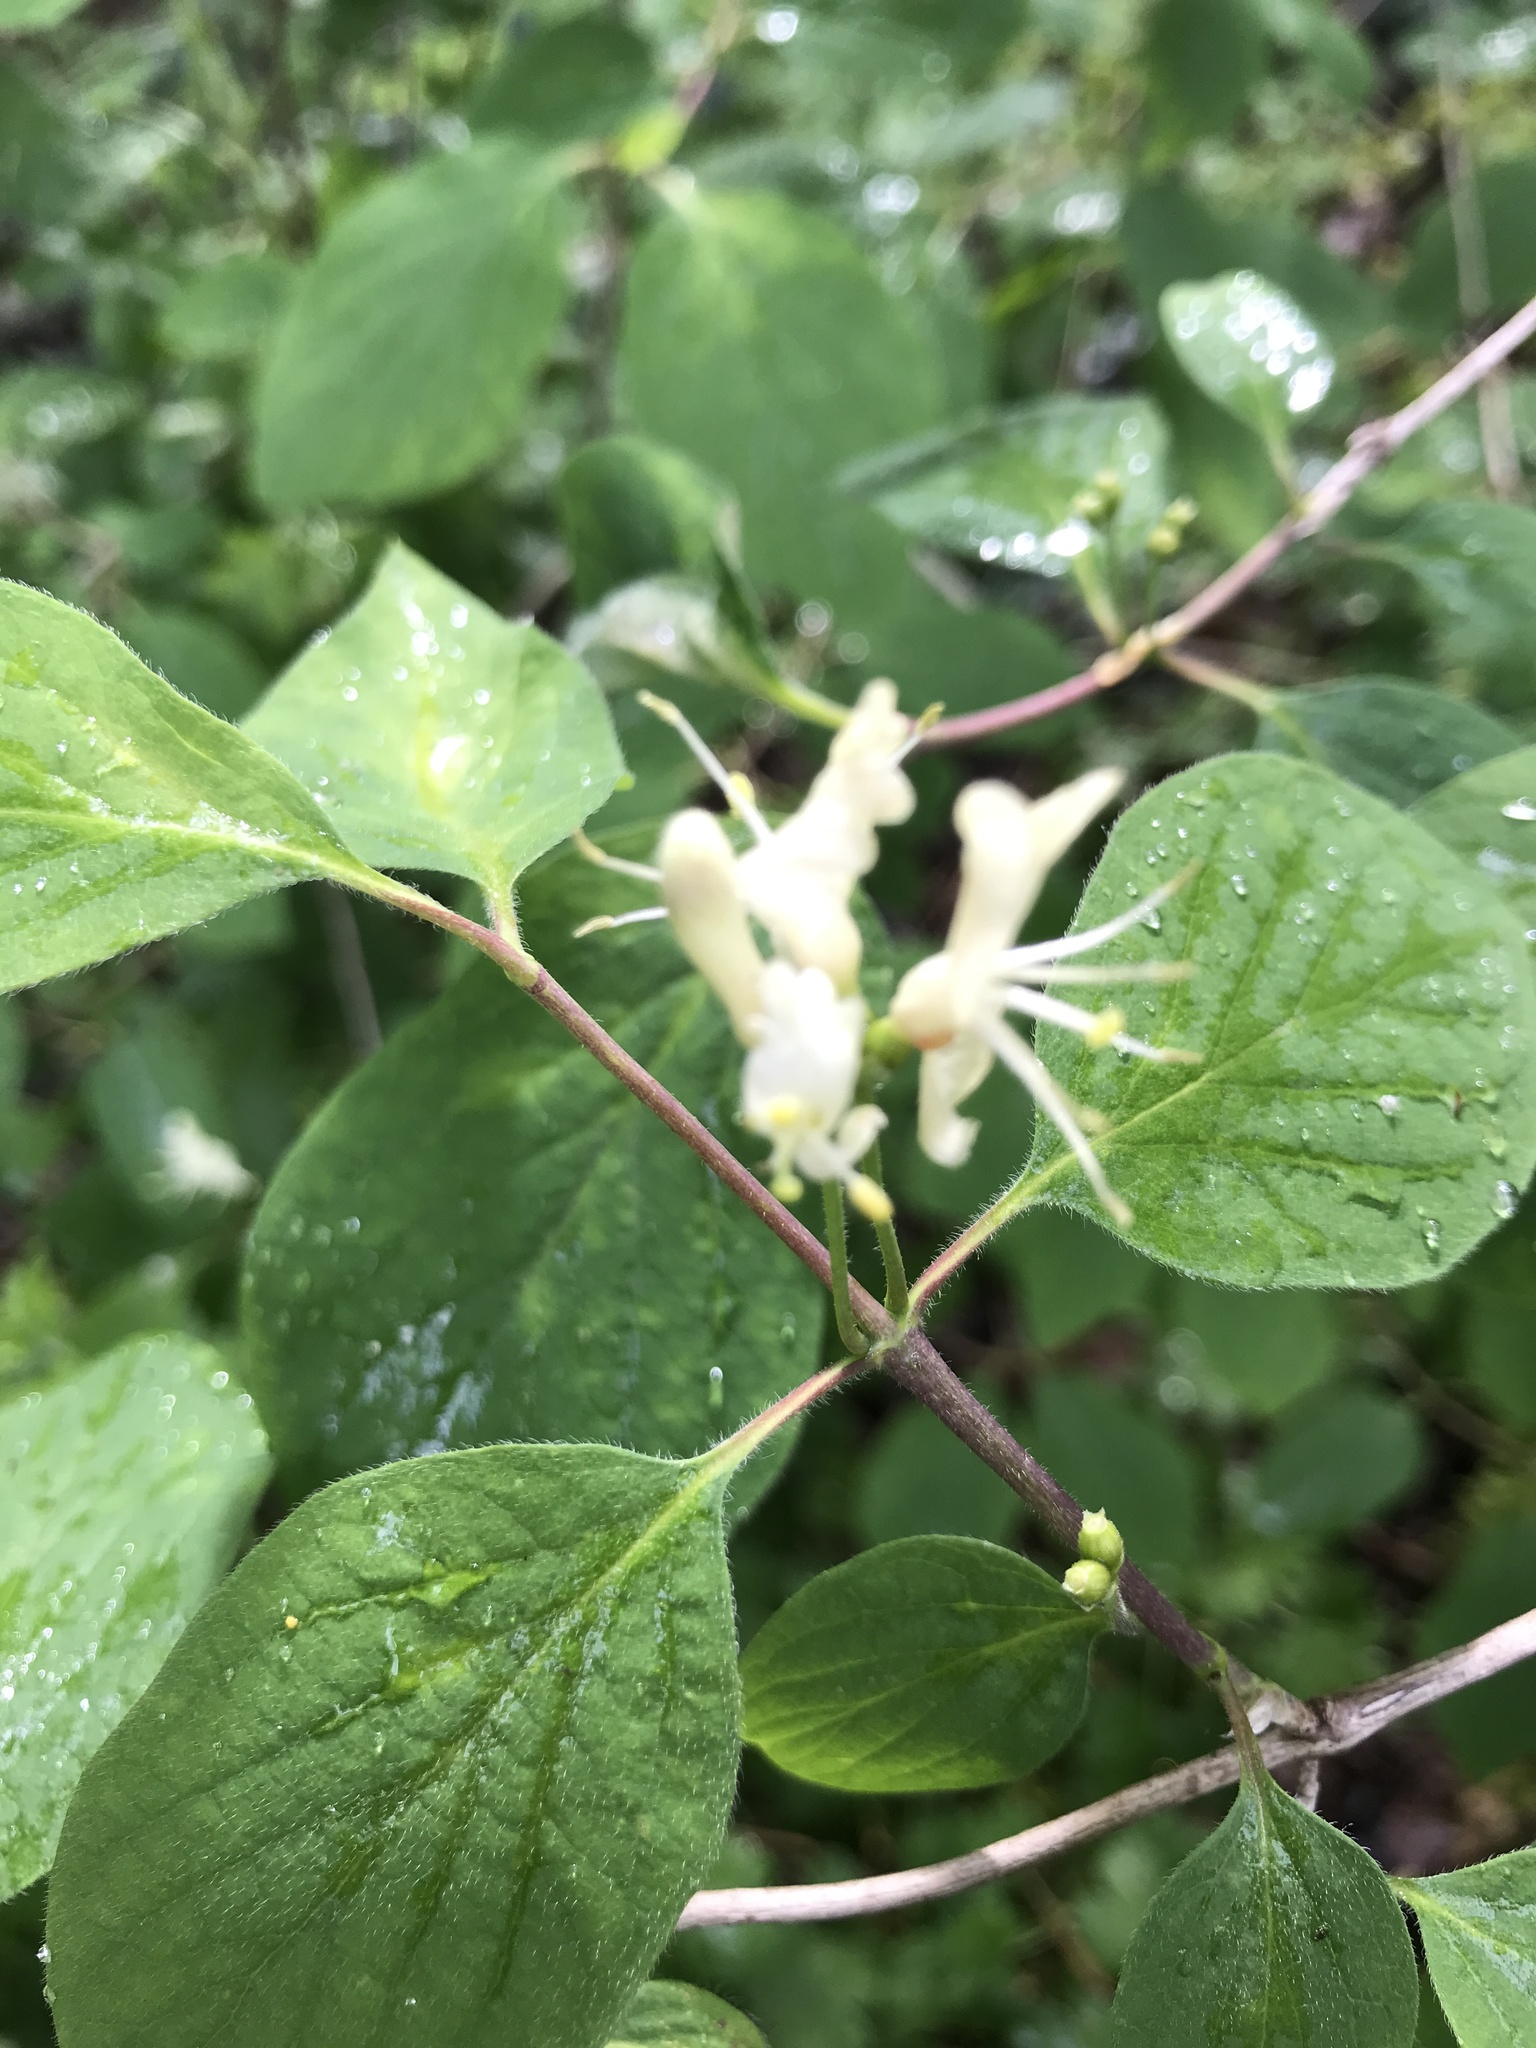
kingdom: Plantae
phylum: Tracheophyta
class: Magnoliopsida
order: Dipsacales
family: Caprifoliaceae
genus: Lonicera
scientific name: Lonicera xylosteum
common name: Fly honeysuckle
